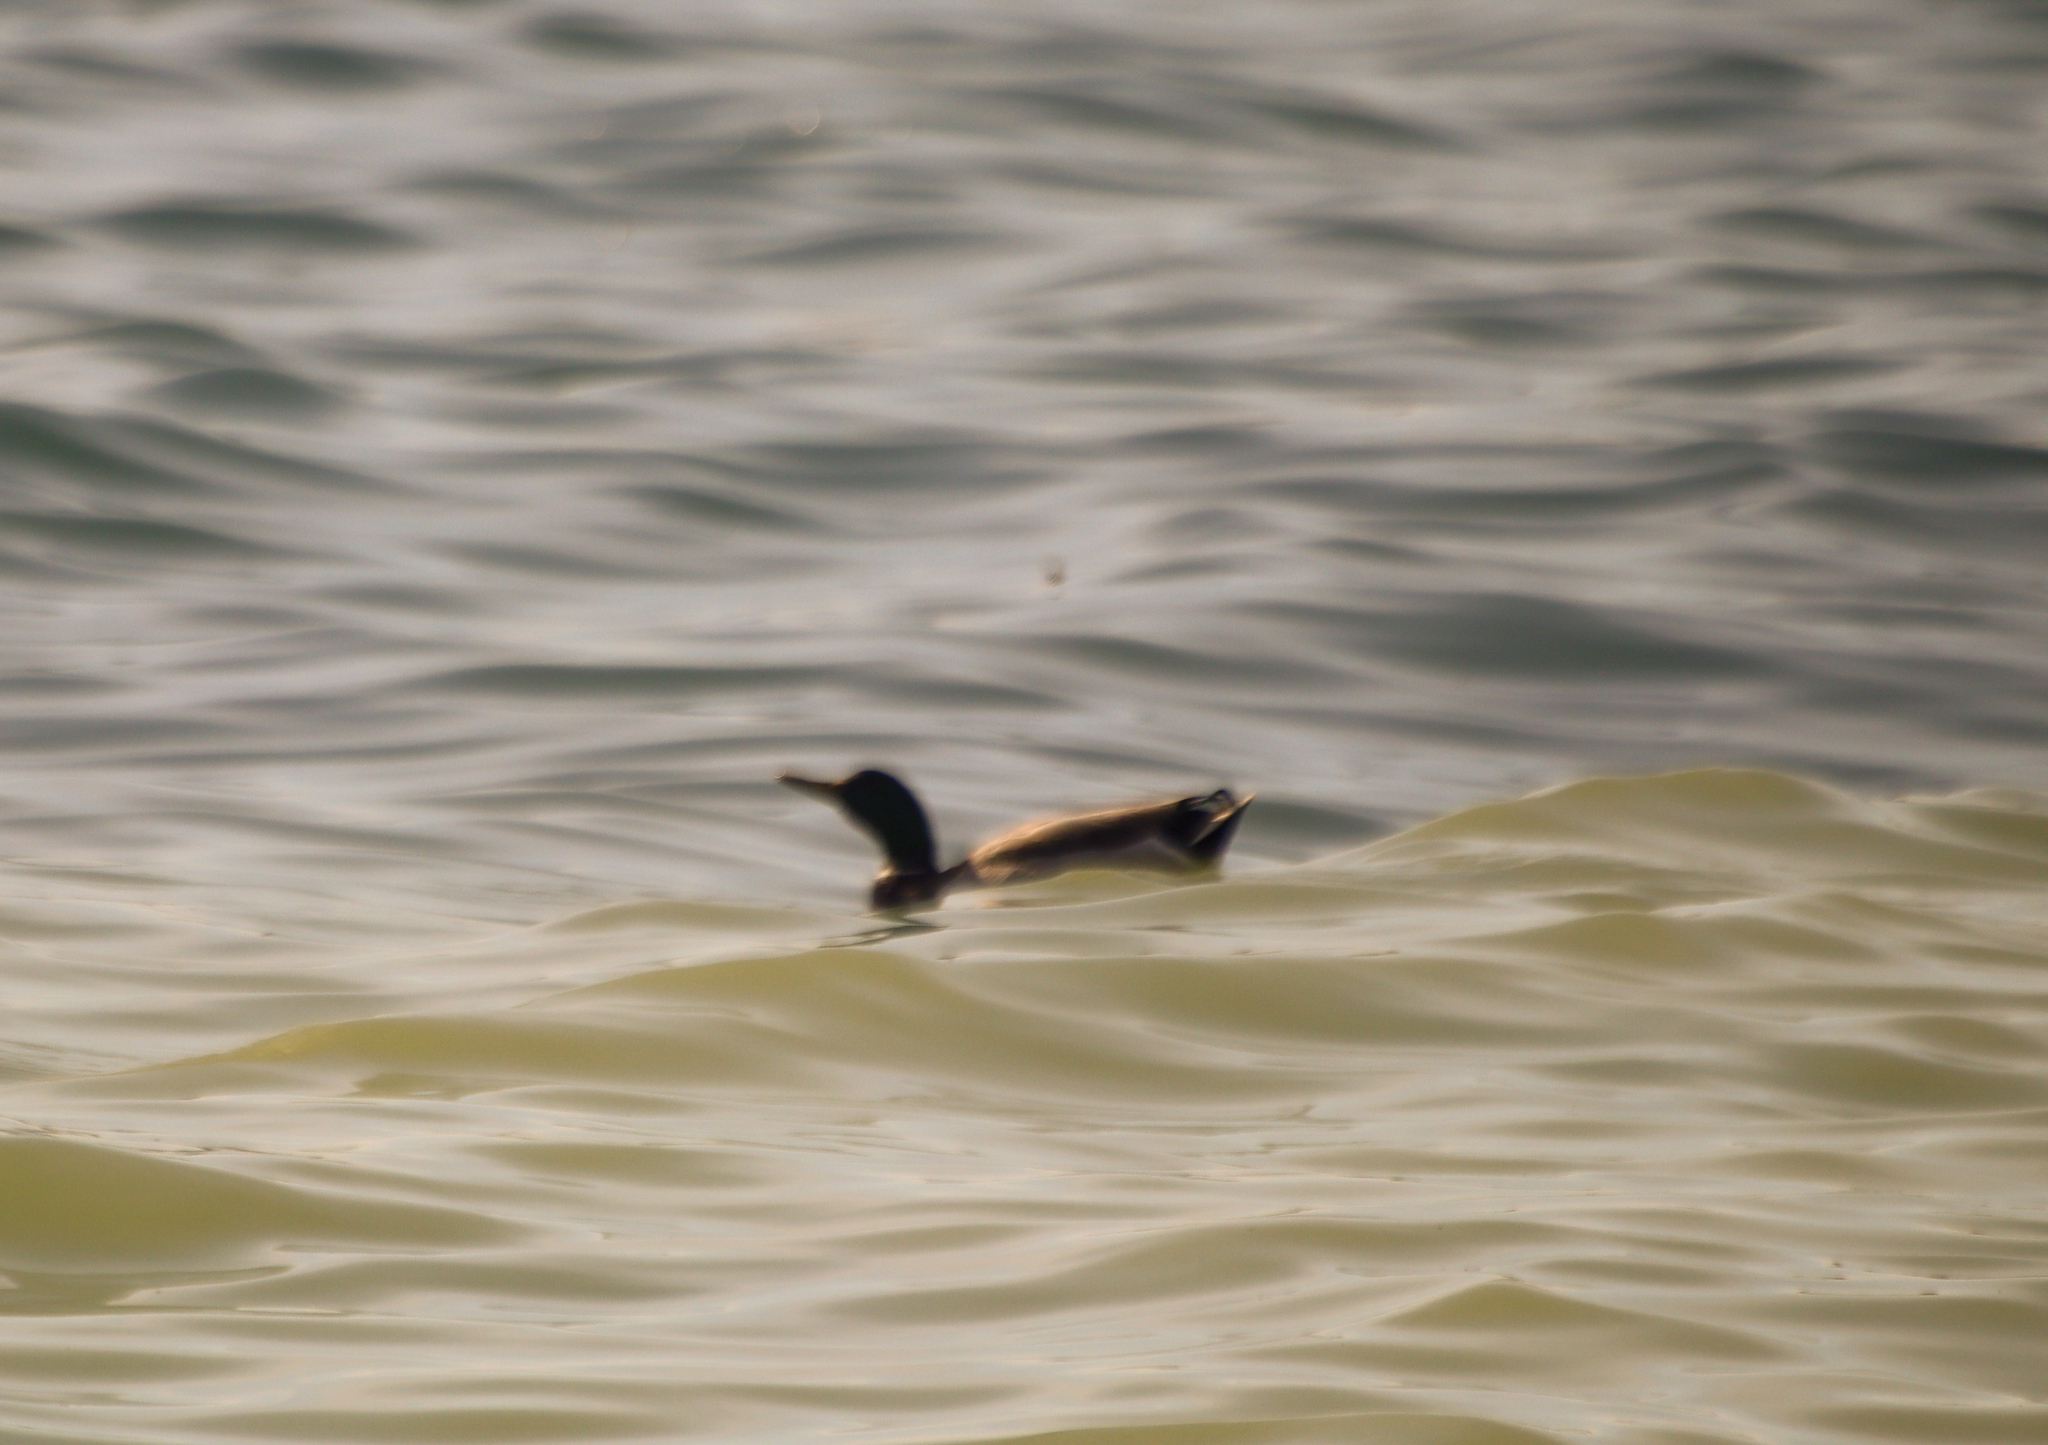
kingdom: Animalia
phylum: Chordata
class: Aves
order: Anseriformes
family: Anatidae
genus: Anas
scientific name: Anas platyrhynchos
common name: Mallard
